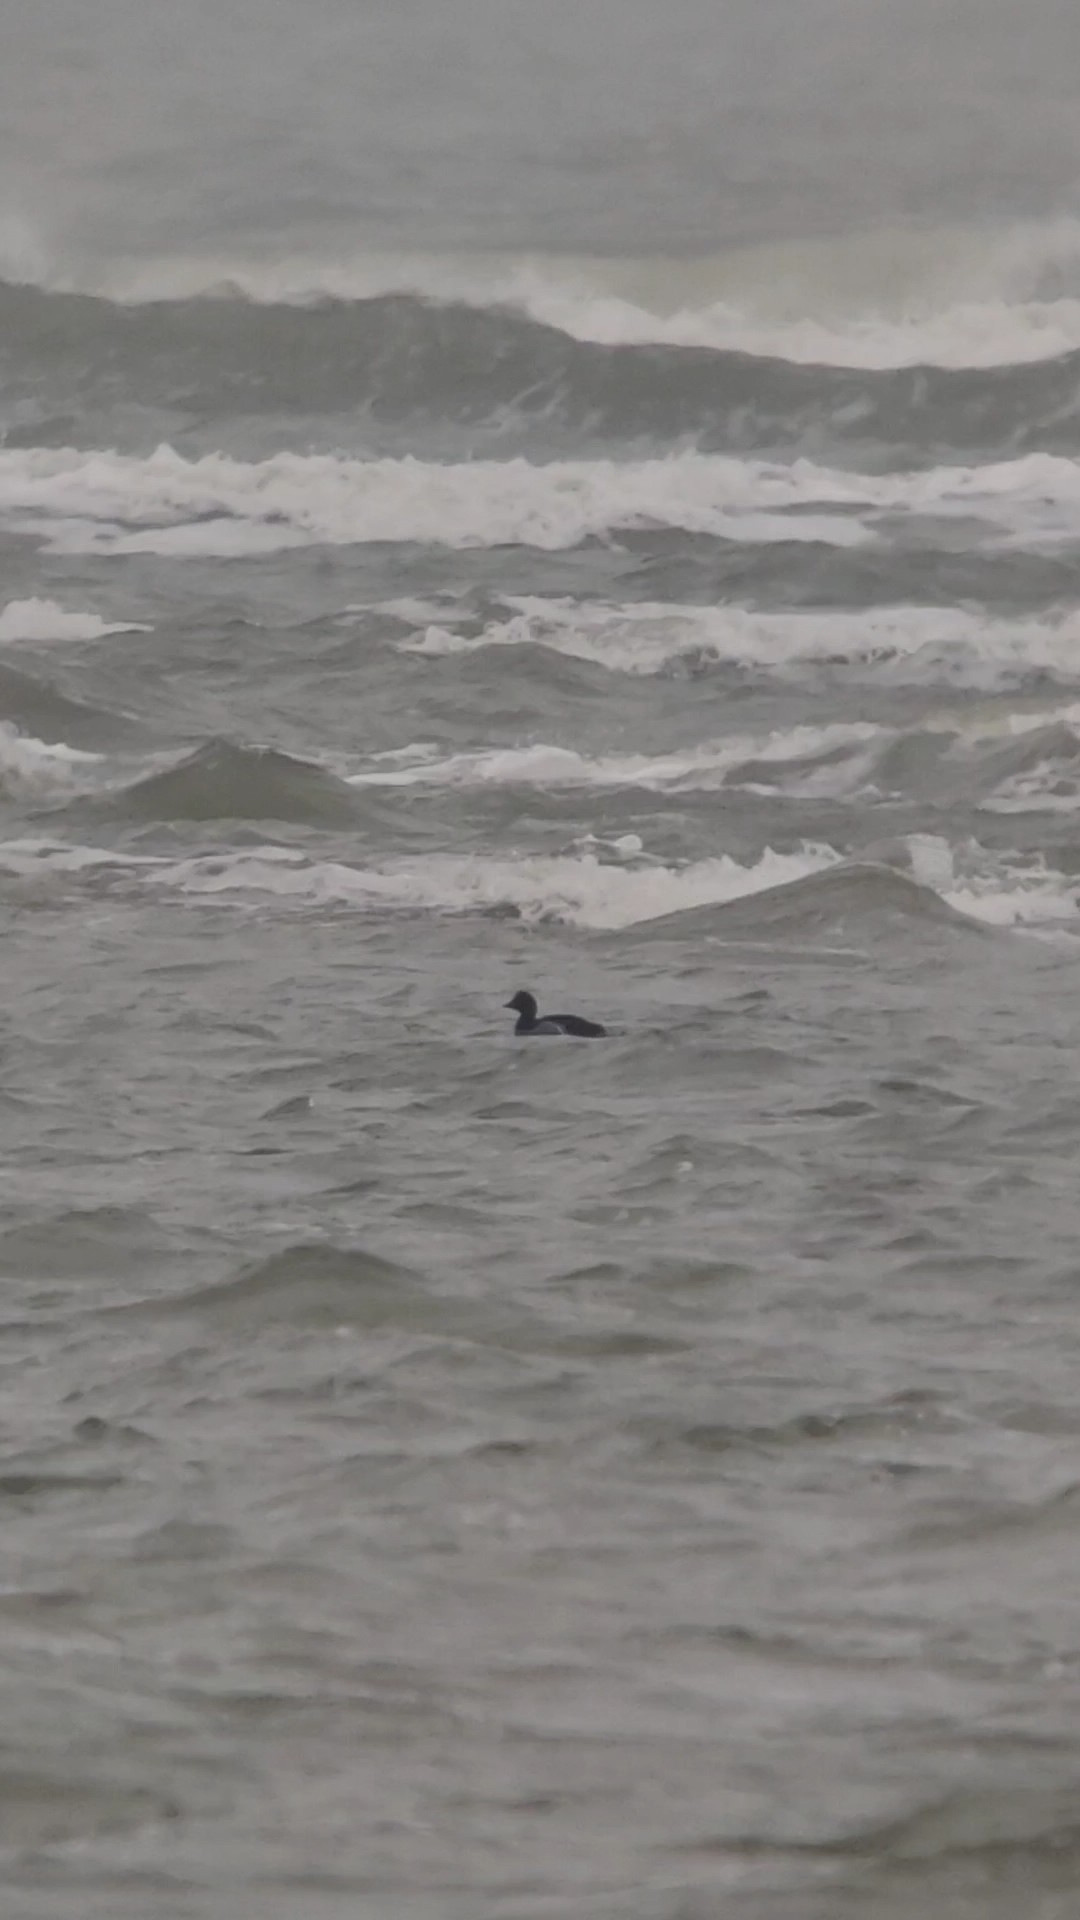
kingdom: Animalia
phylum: Chordata
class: Aves
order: Anseriformes
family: Anatidae
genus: Melanitta
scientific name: Melanitta nigra
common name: Common scoter
